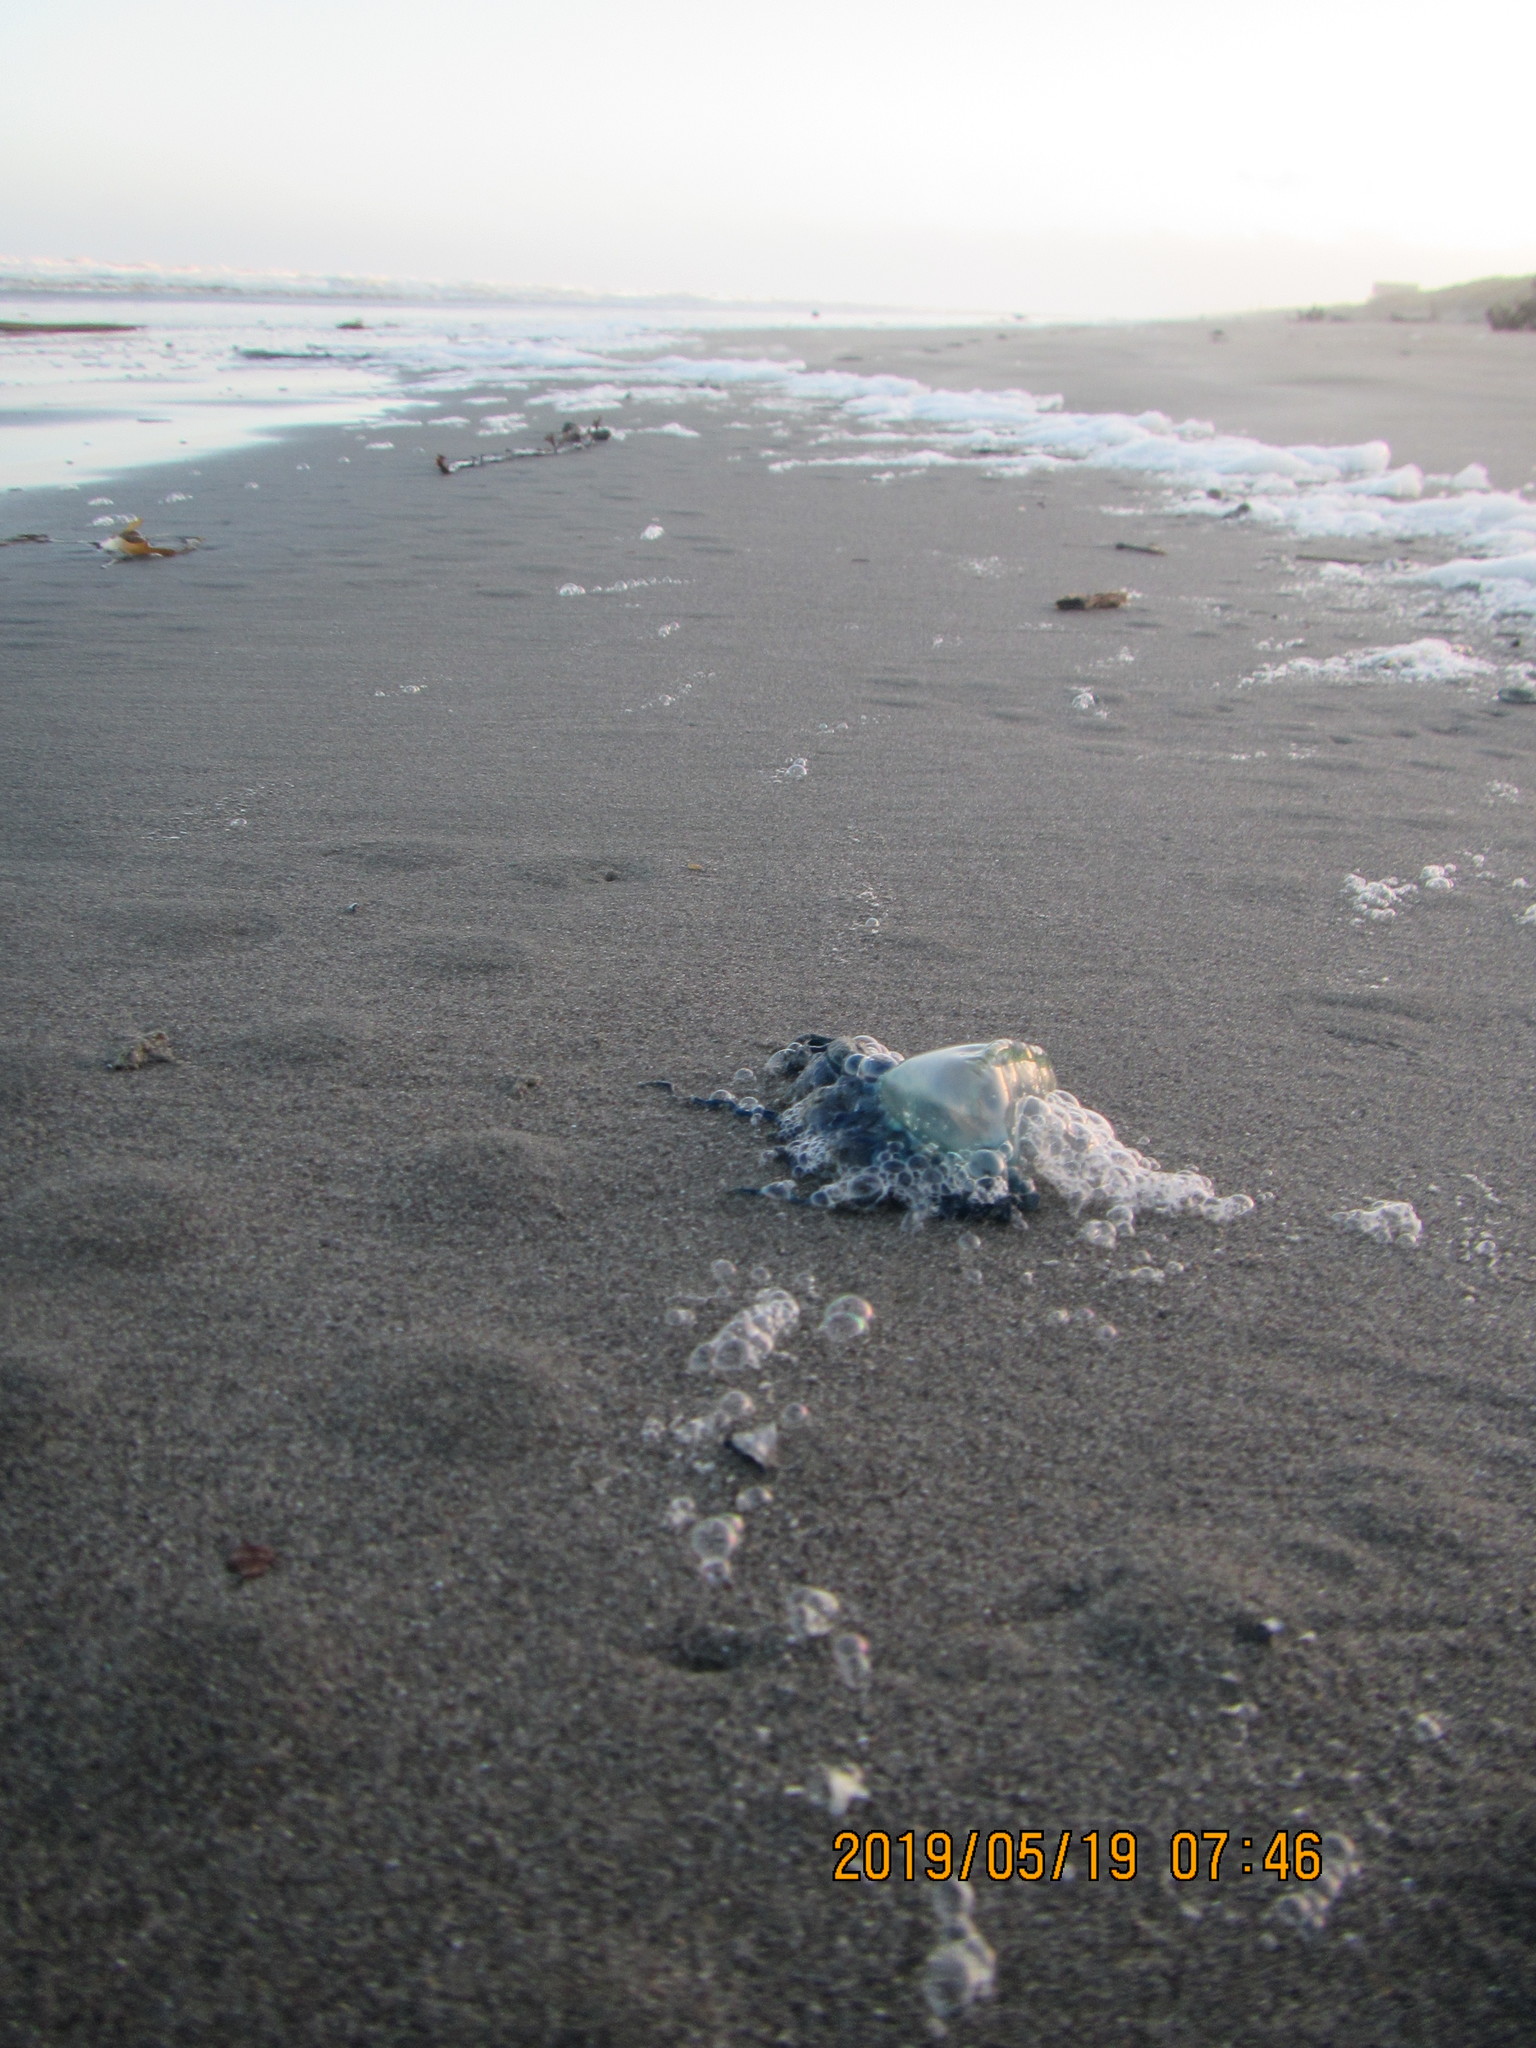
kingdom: Animalia
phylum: Cnidaria
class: Hydrozoa
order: Siphonophorae
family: Physaliidae
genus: Physalia
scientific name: Physalia physalis
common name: Portuguese man-of-war
